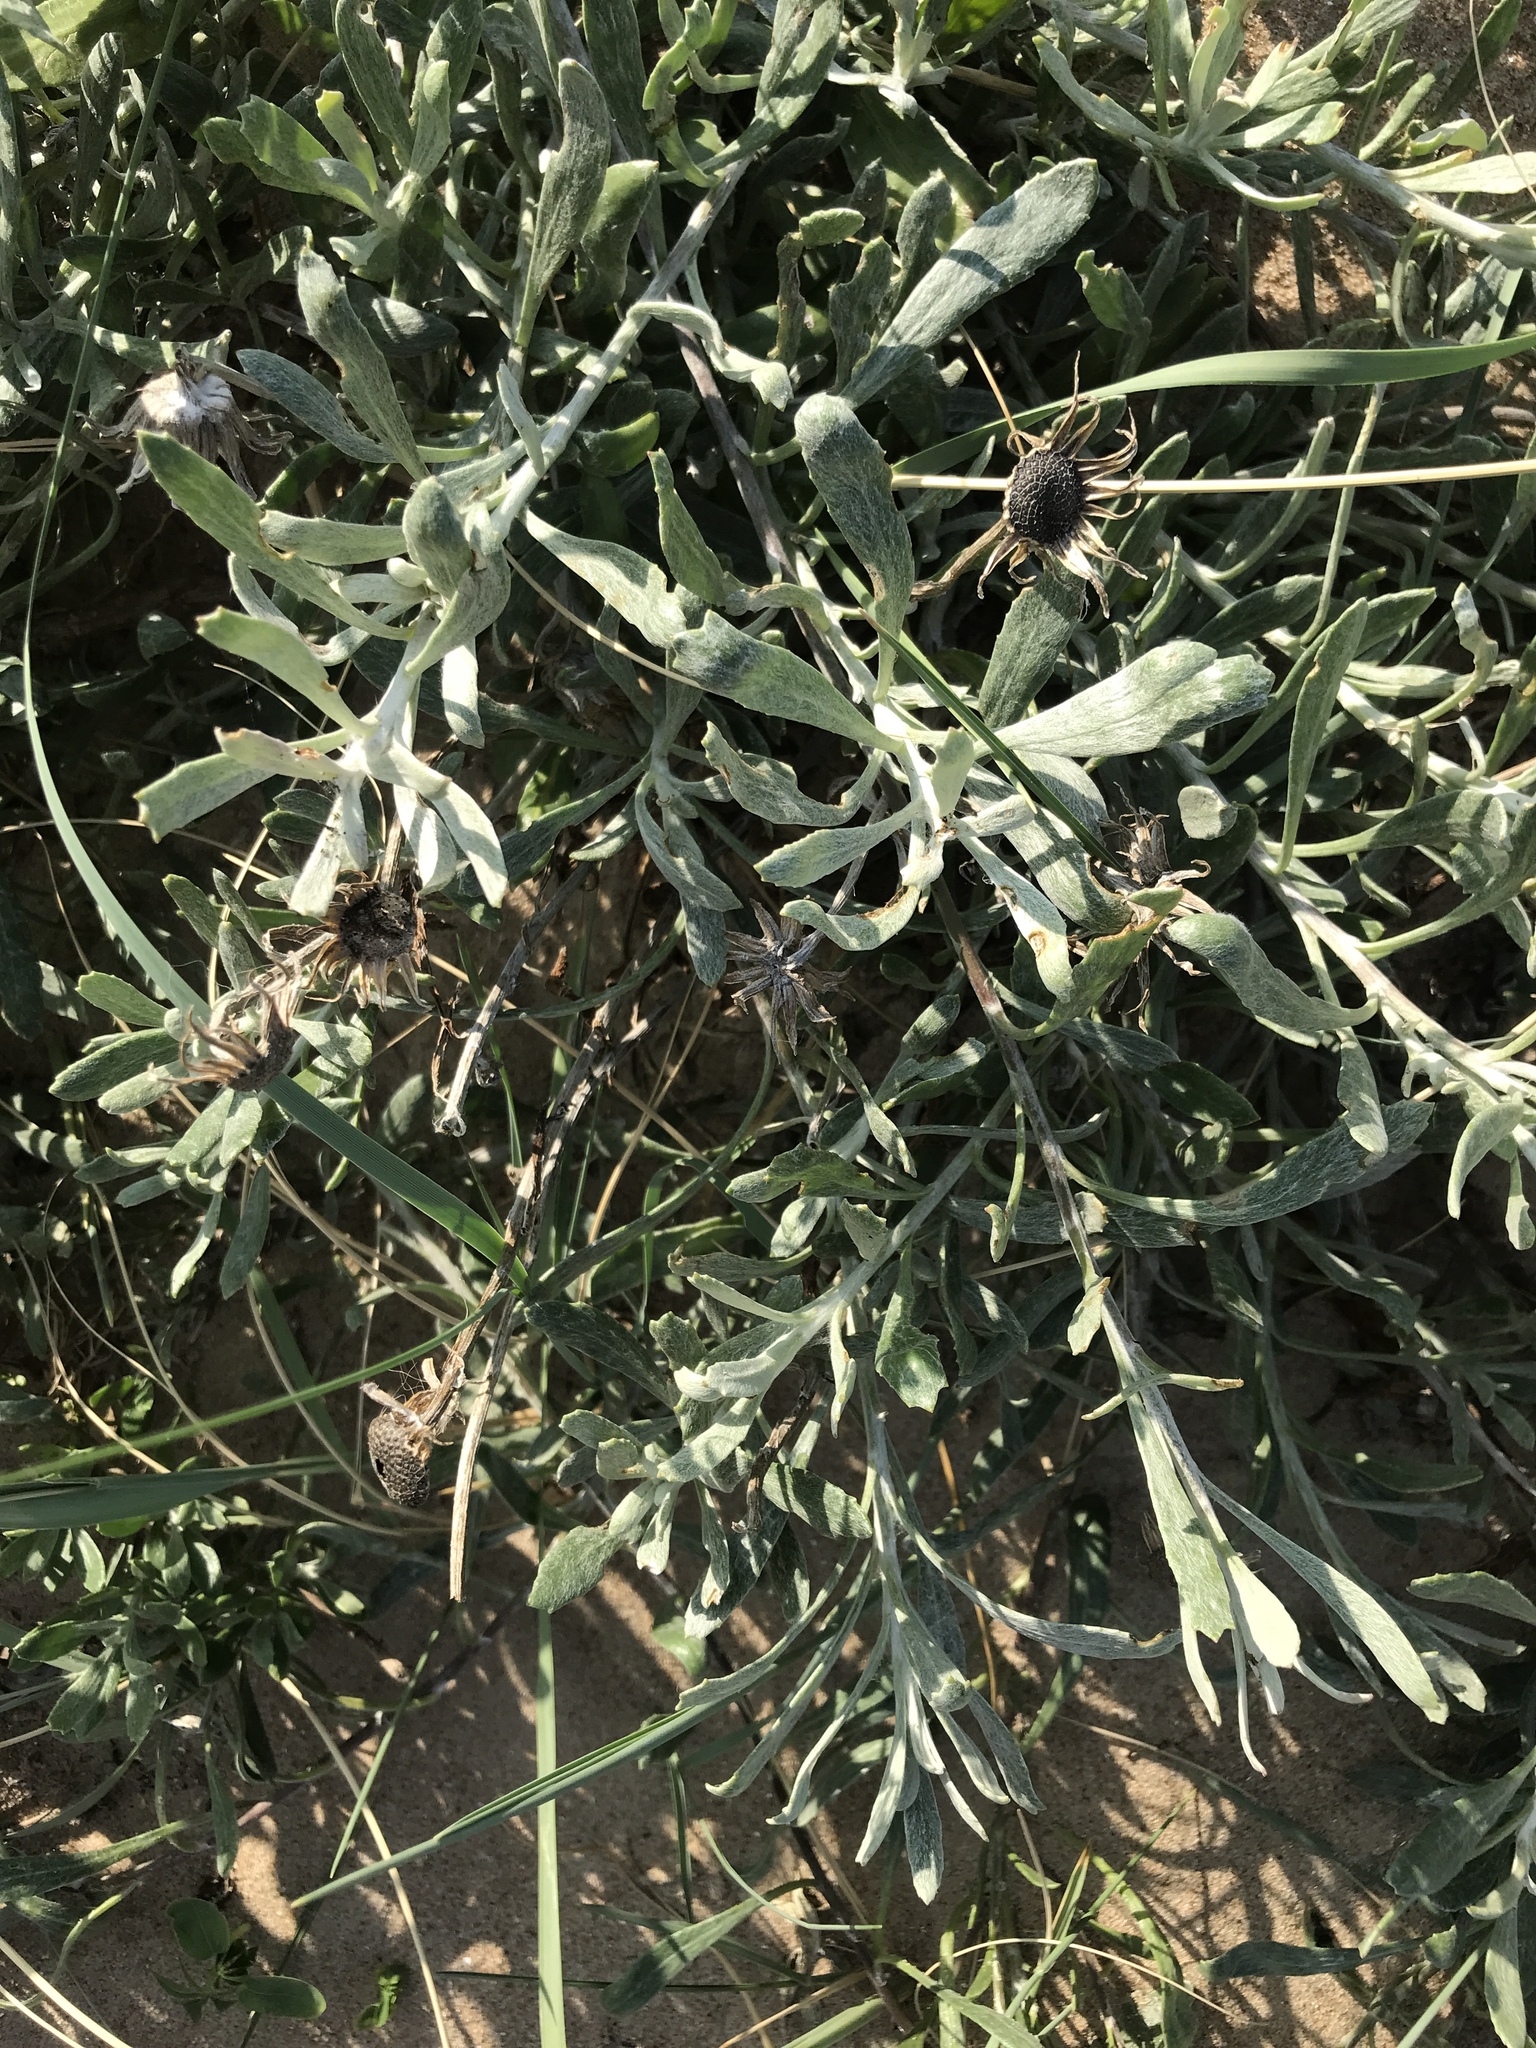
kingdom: Plantae
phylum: Tracheophyta
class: Magnoliopsida
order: Asterales
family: Asteraceae
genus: Senecio
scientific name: Senecio crassiflorus
